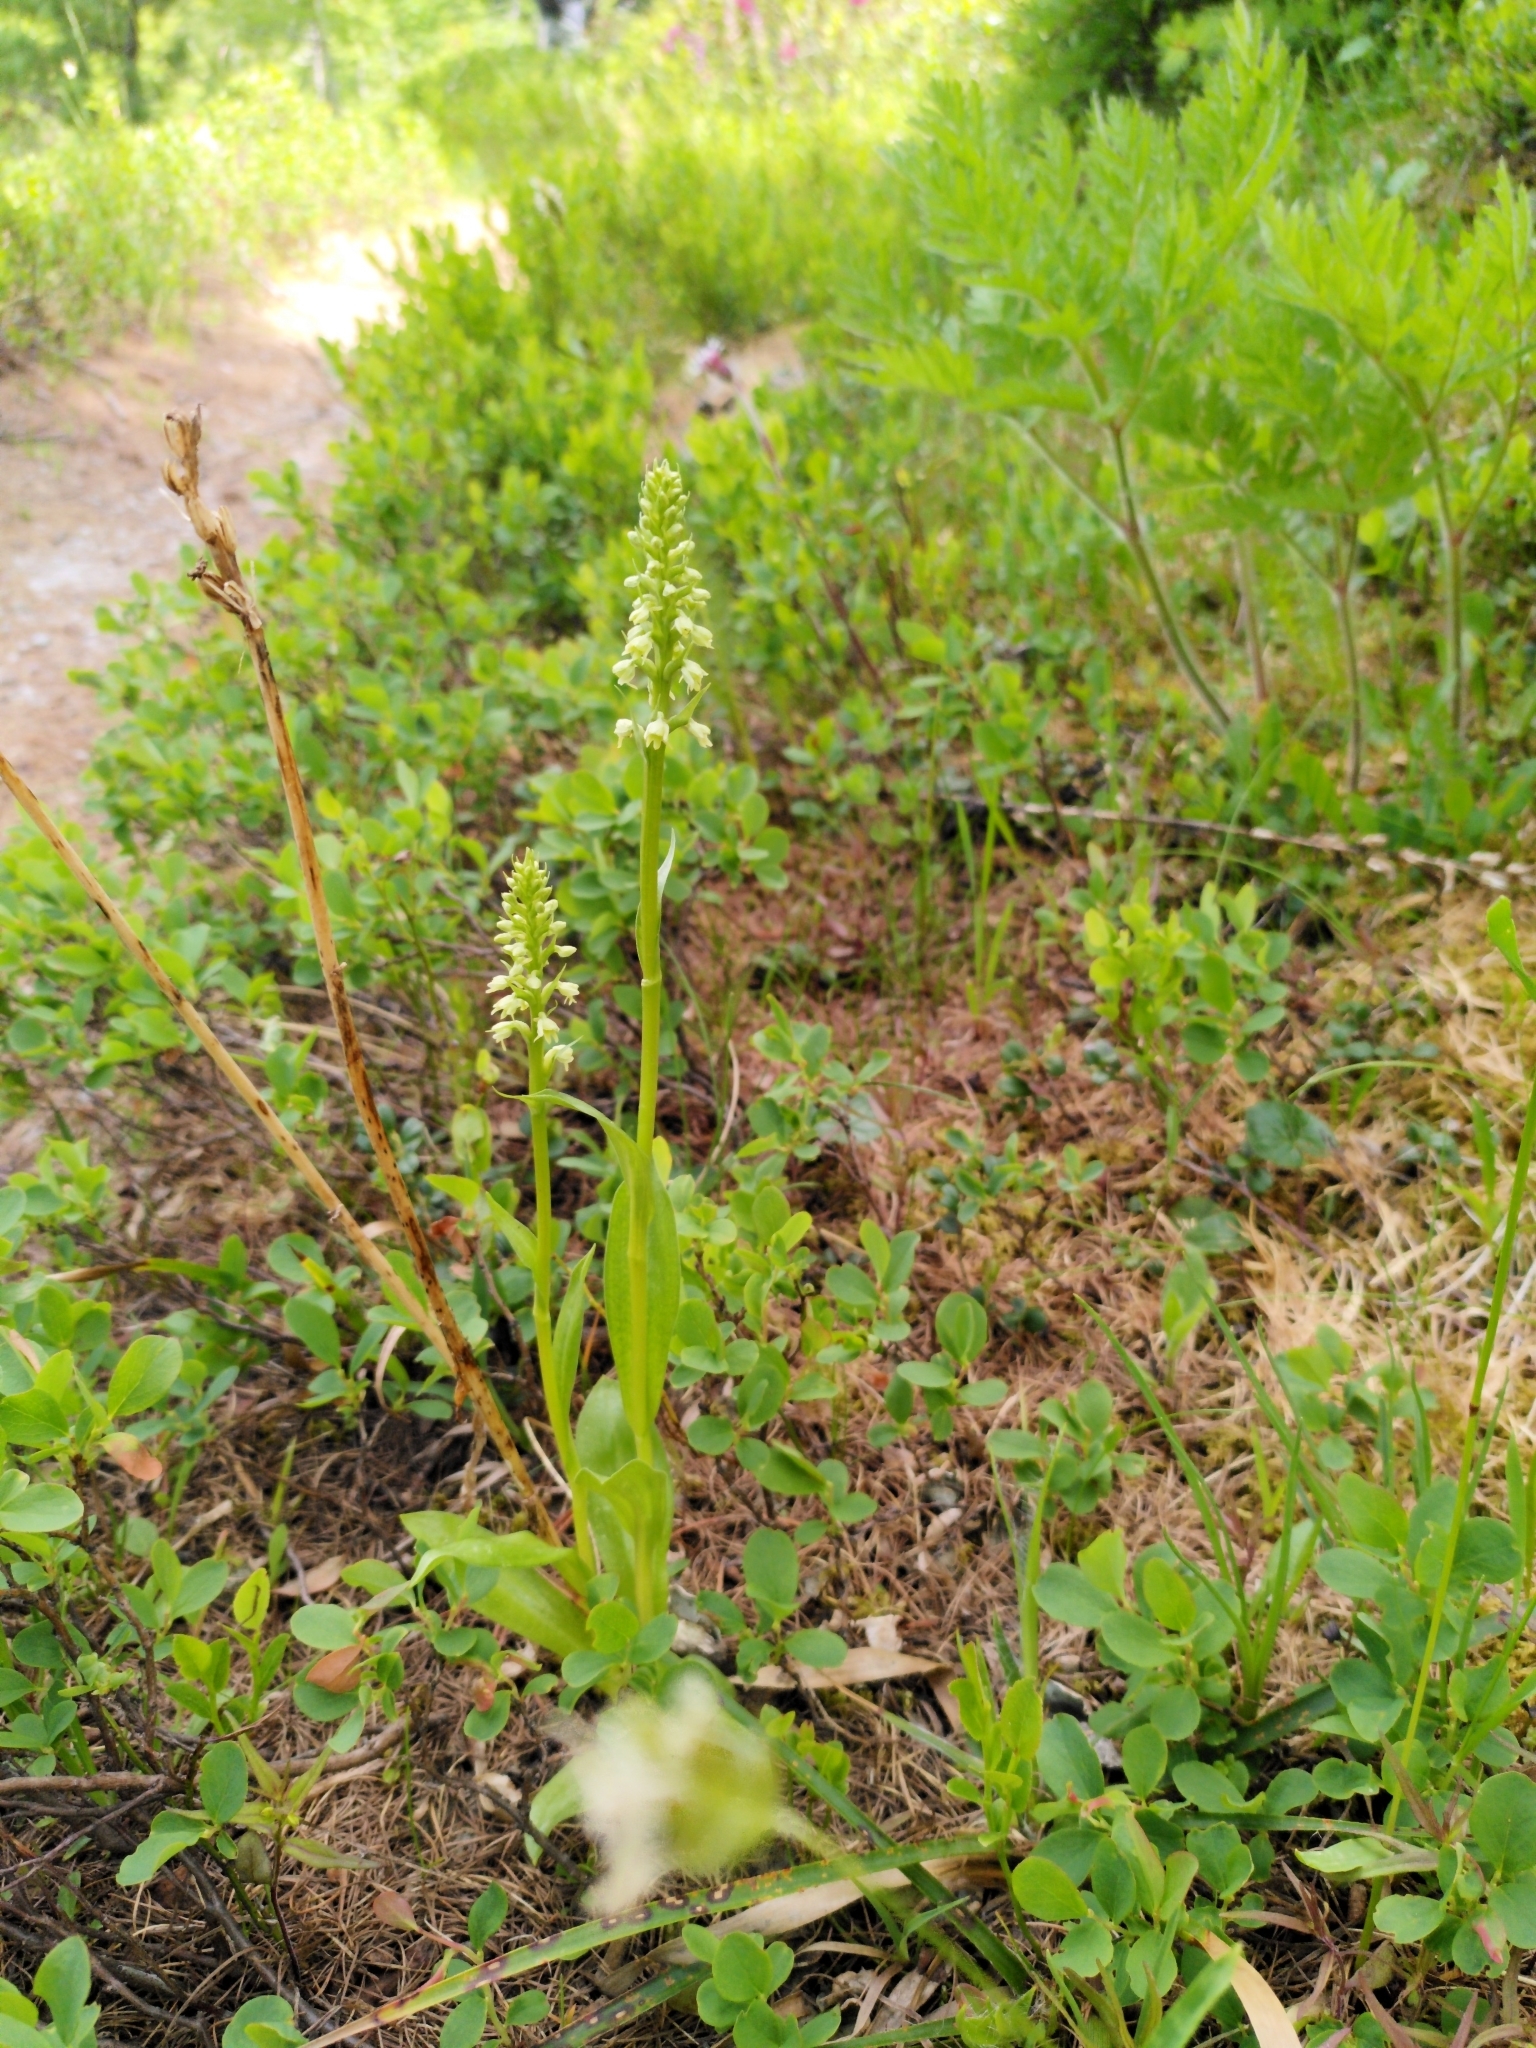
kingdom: Plantae
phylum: Tracheophyta
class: Liliopsida
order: Asparagales
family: Orchidaceae
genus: Pseudorchis
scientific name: Pseudorchis albida
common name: Small-white orchid
